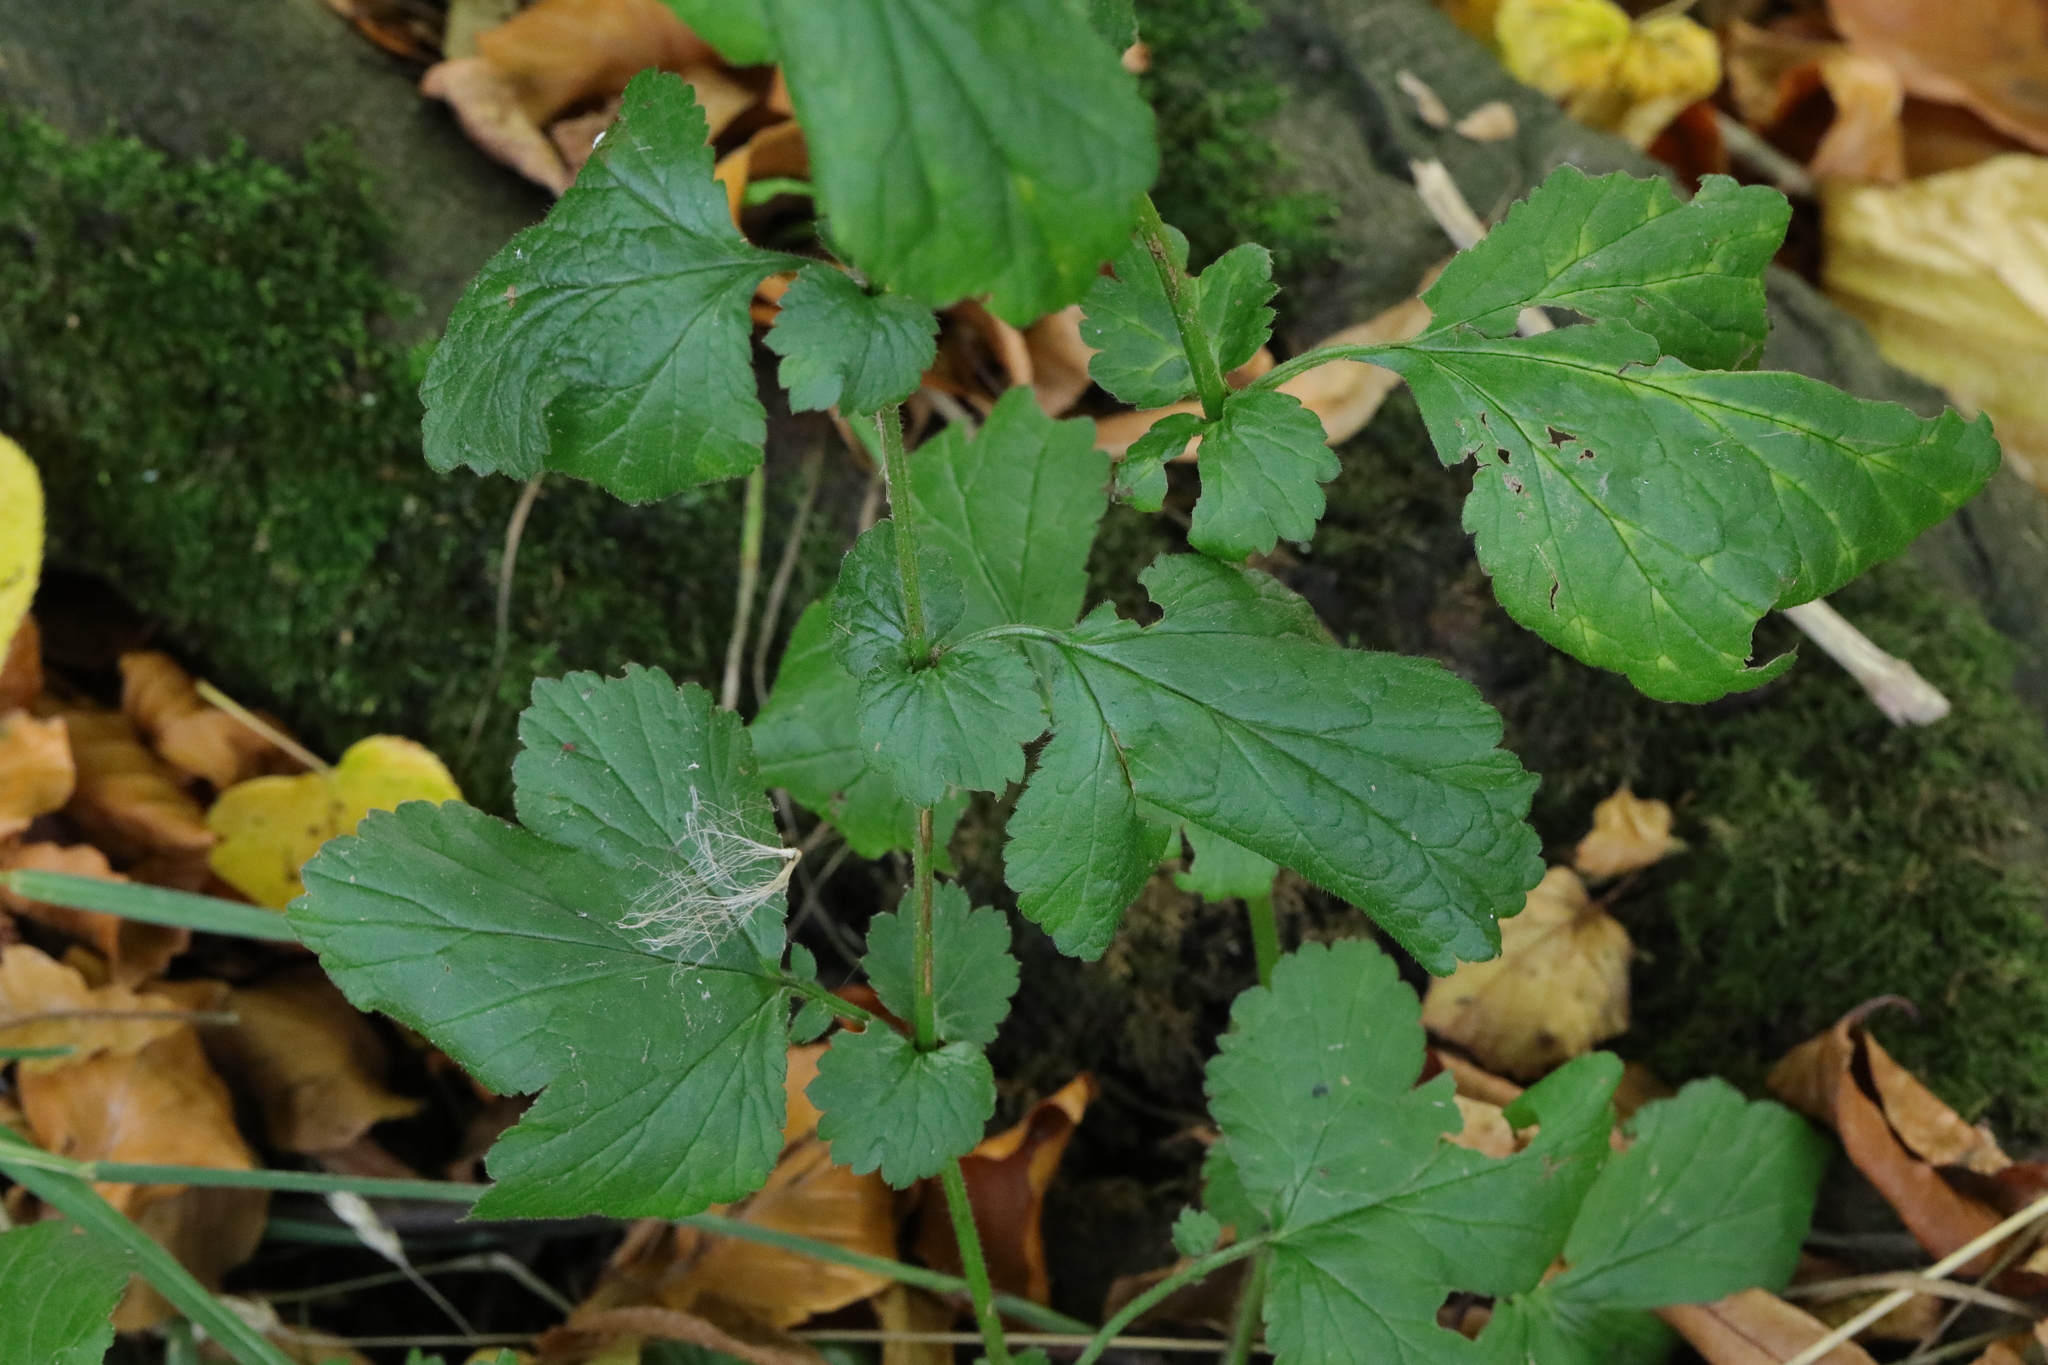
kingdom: Plantae
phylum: Tracheophyta
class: Magnoliopsida
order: Rosales
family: Rosaceae
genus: Geum
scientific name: Geum urbanum
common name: Wood avens
